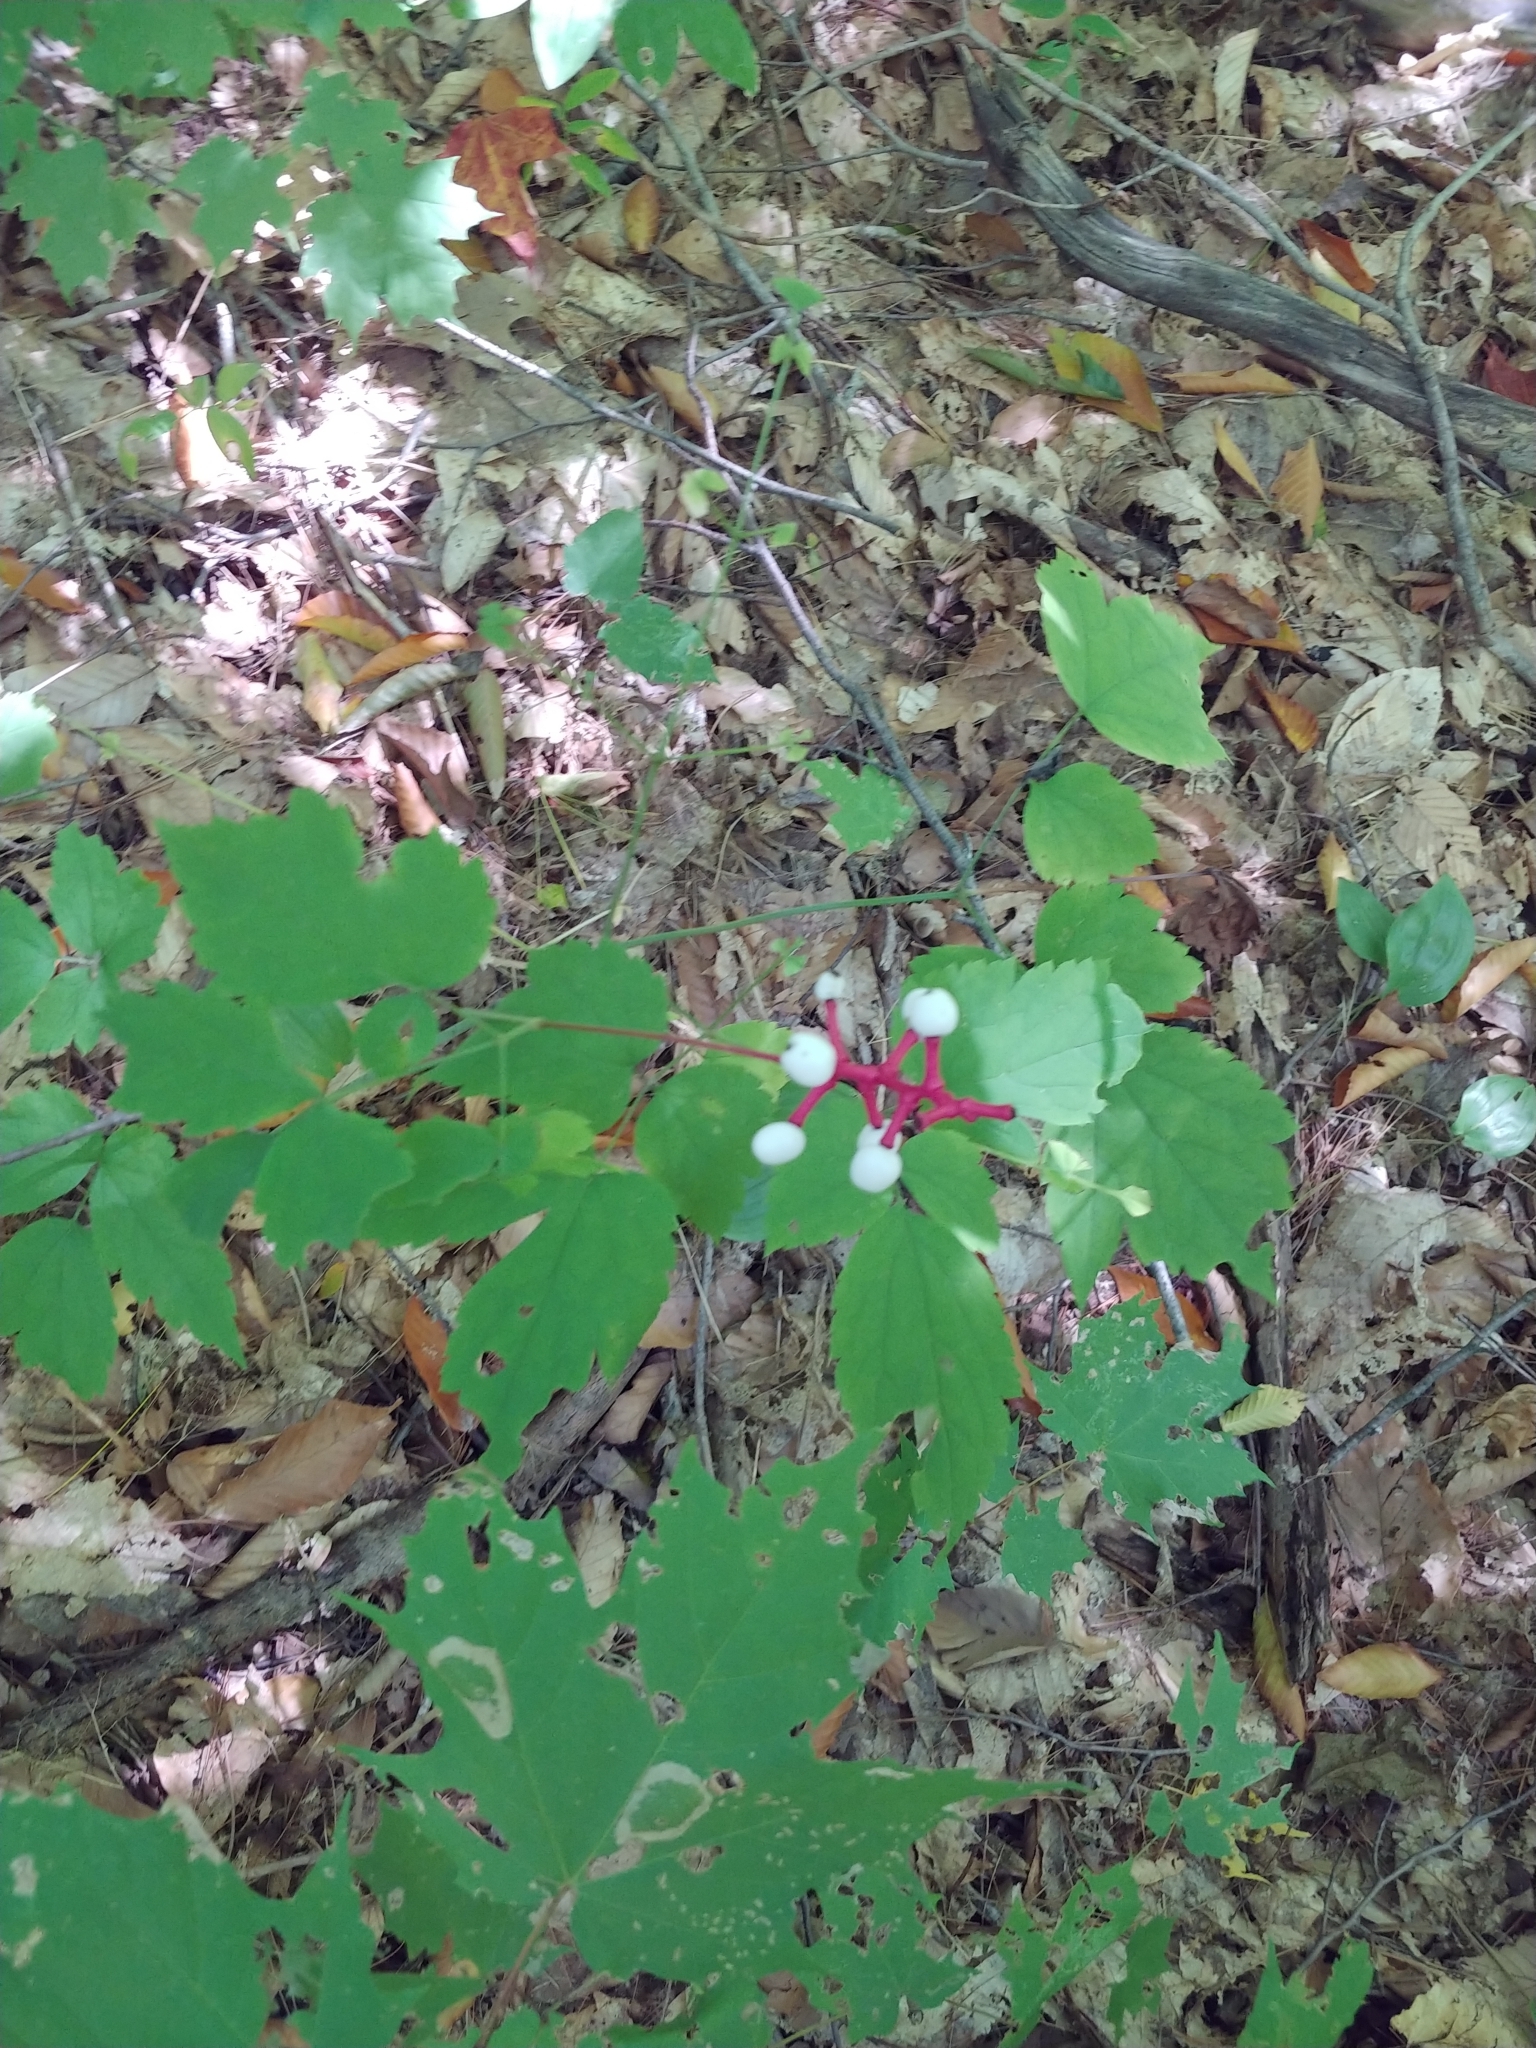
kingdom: Plantae
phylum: Tracheophyta
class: Magnoliopsida
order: Ranunculales
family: Ranunculaceae
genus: Actaea
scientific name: Actaea pachypoda
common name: Doll's-eyes
